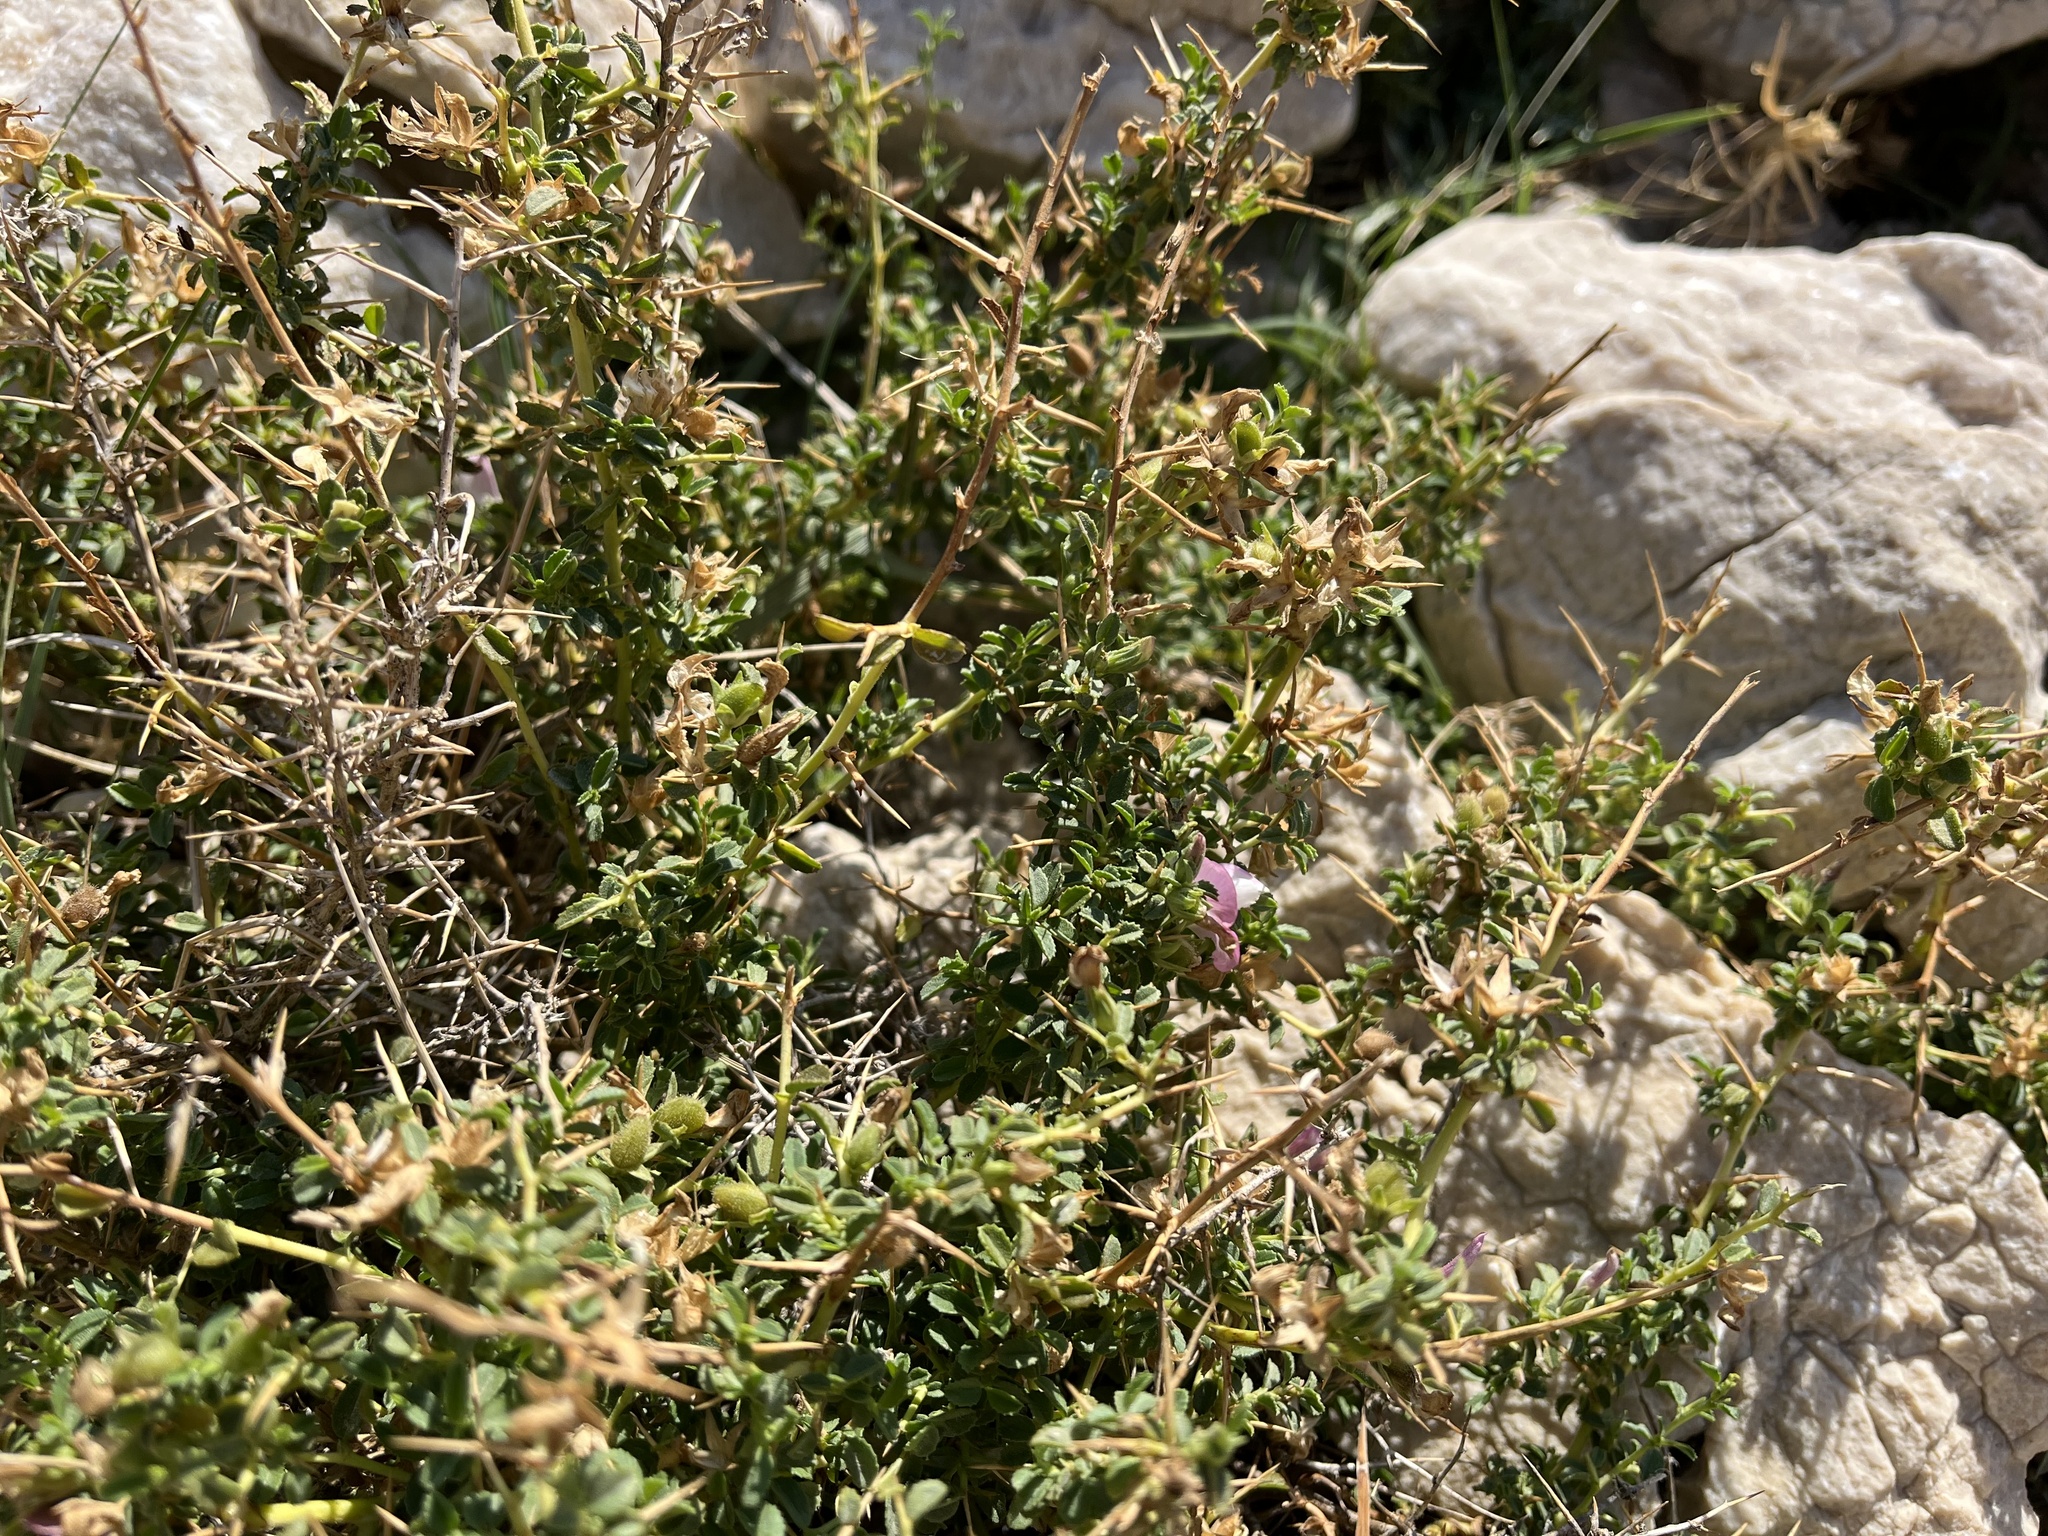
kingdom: Plantae
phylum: Tracheophyta
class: Magnoliopsida
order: Fabales
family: Fabaceae
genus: Ononis
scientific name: Ononis spinosa
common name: Spiny restharrow
